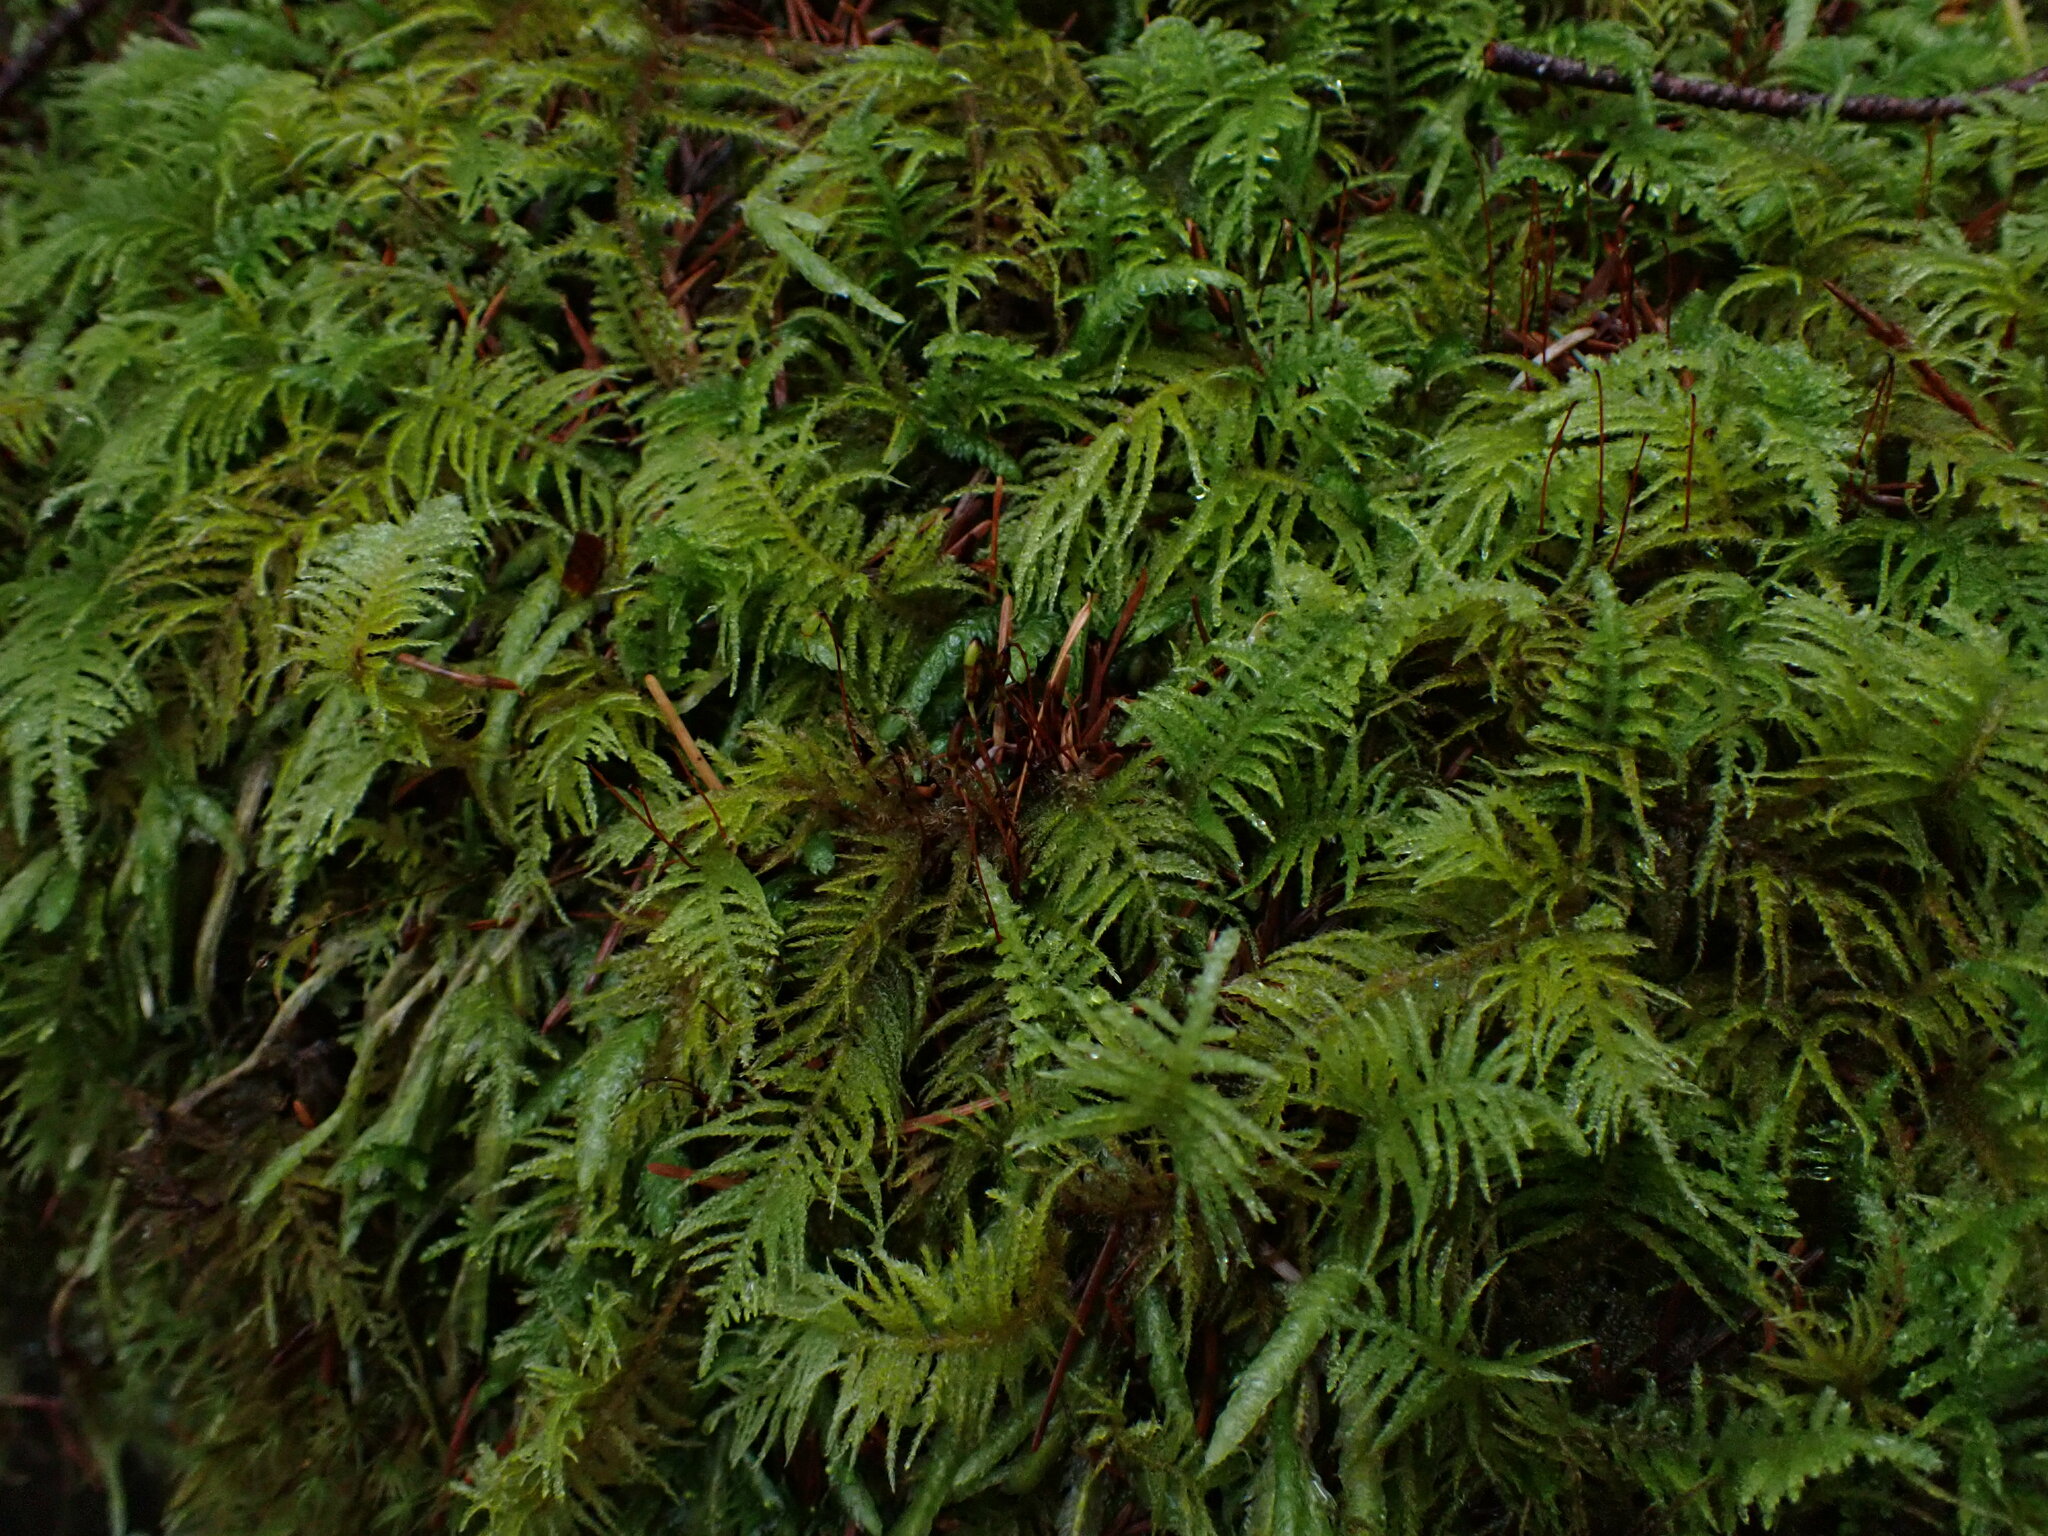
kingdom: Plantae
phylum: Bryophyta
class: Bryopsida
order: Hypnales
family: Brachytheciaceae
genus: Kindbergia
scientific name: Kindbergia oregana
